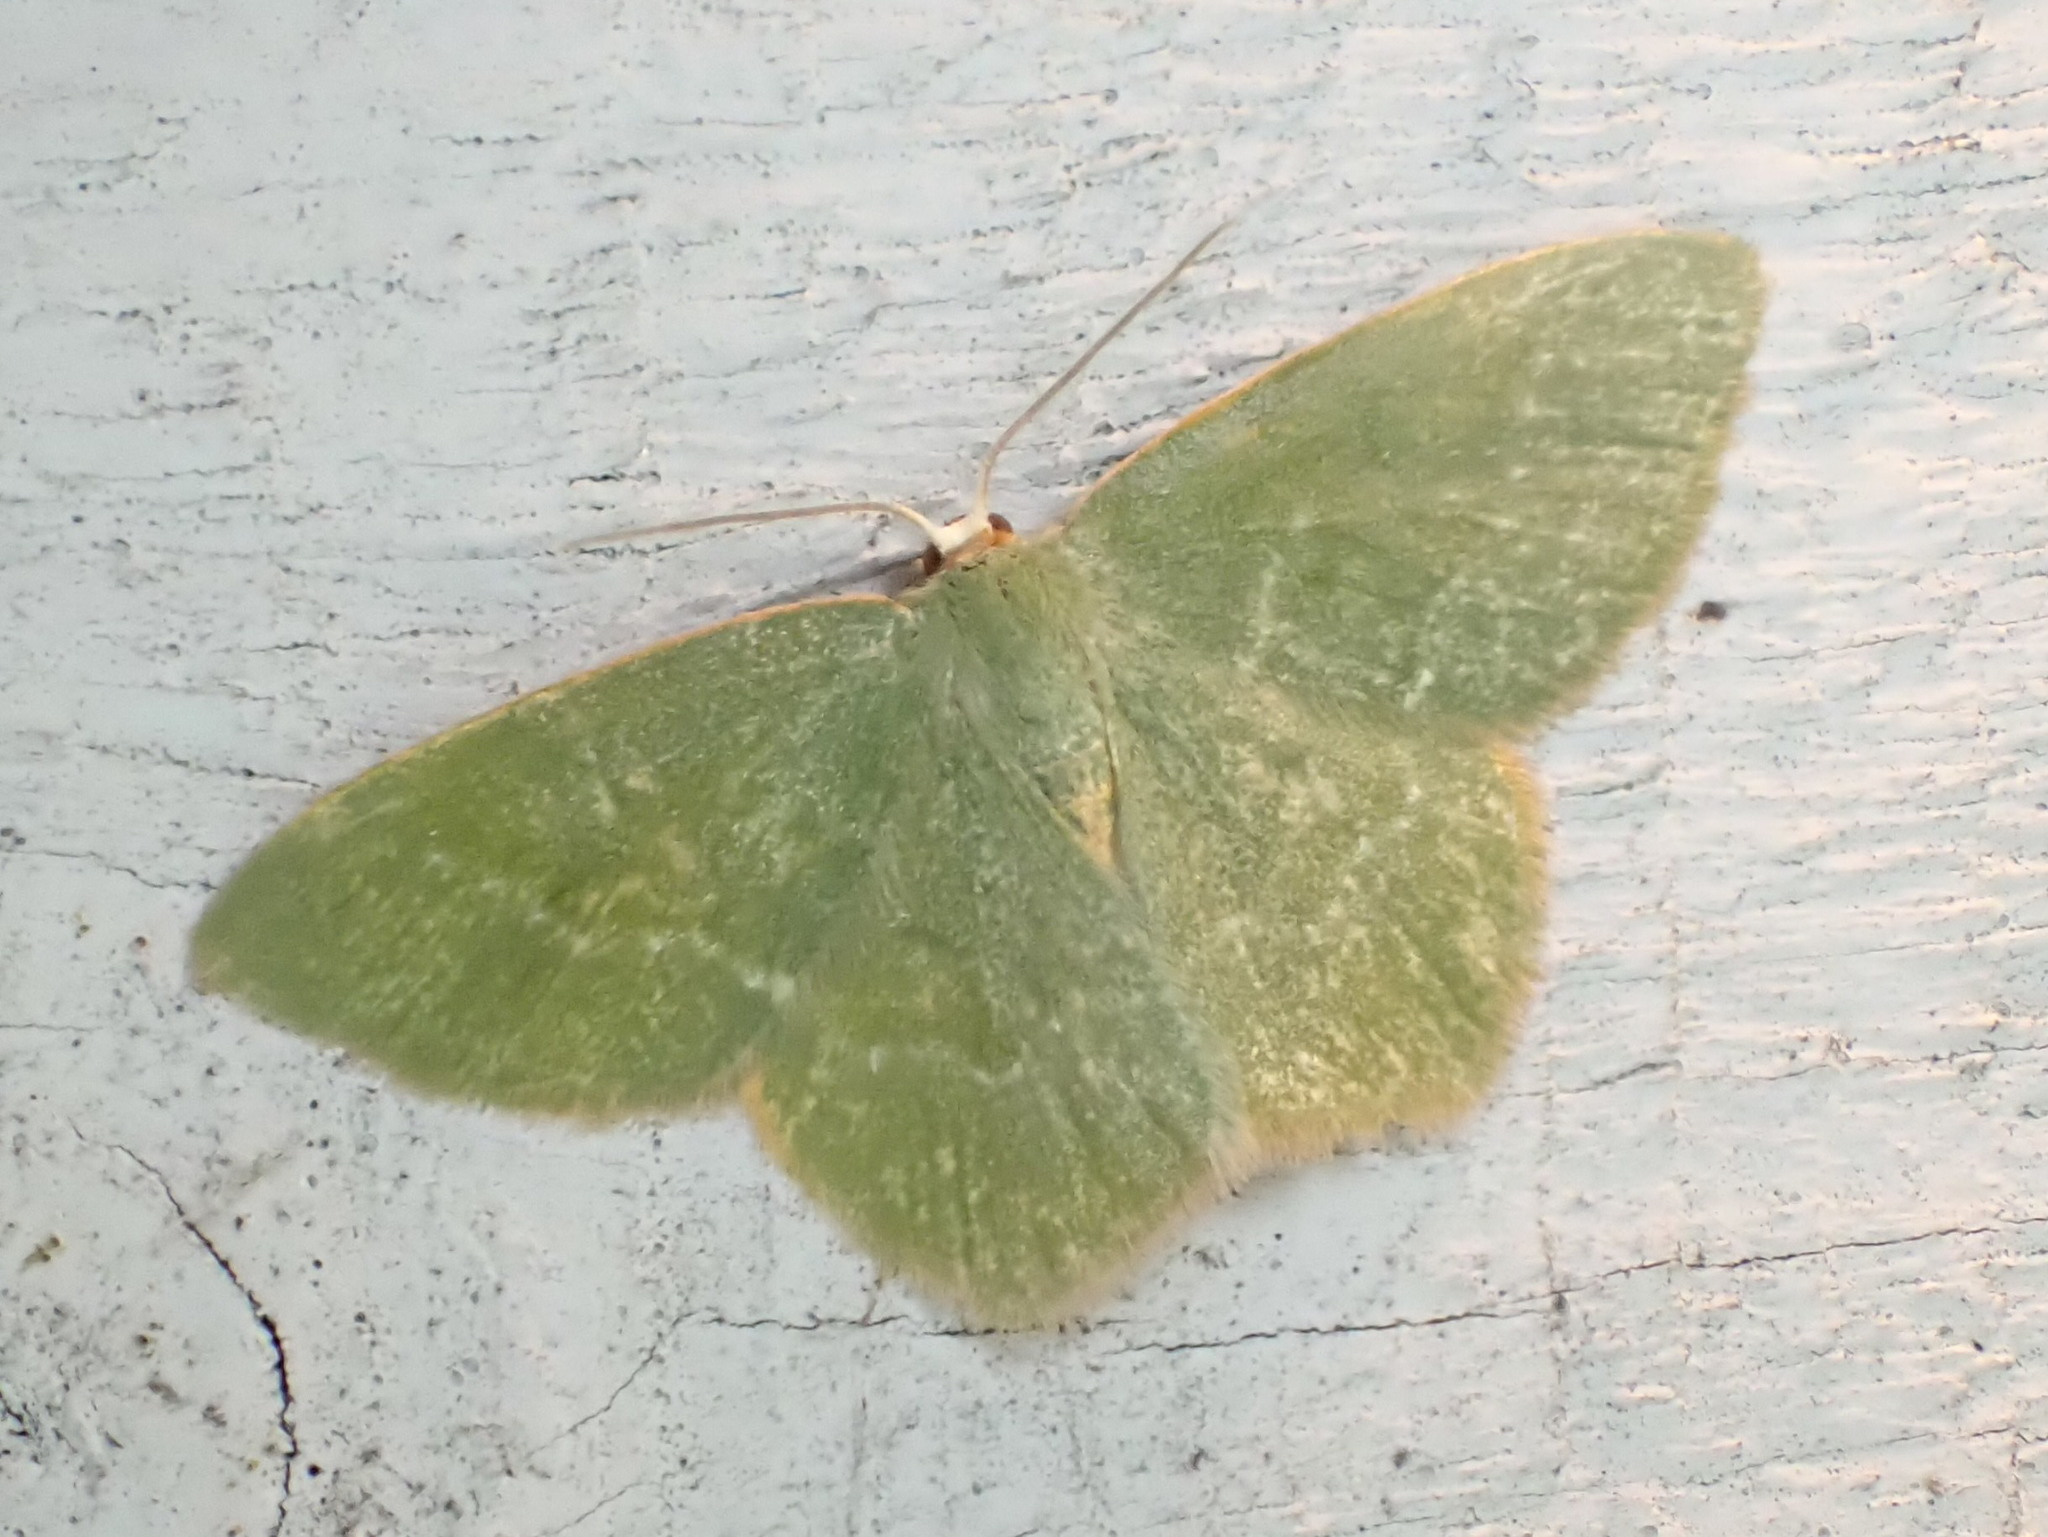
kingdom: Animalia
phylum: Arthropoda
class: Insecta
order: Lepidoptera
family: Geometridae
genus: Thalera
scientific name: Thalera pistasciaria
